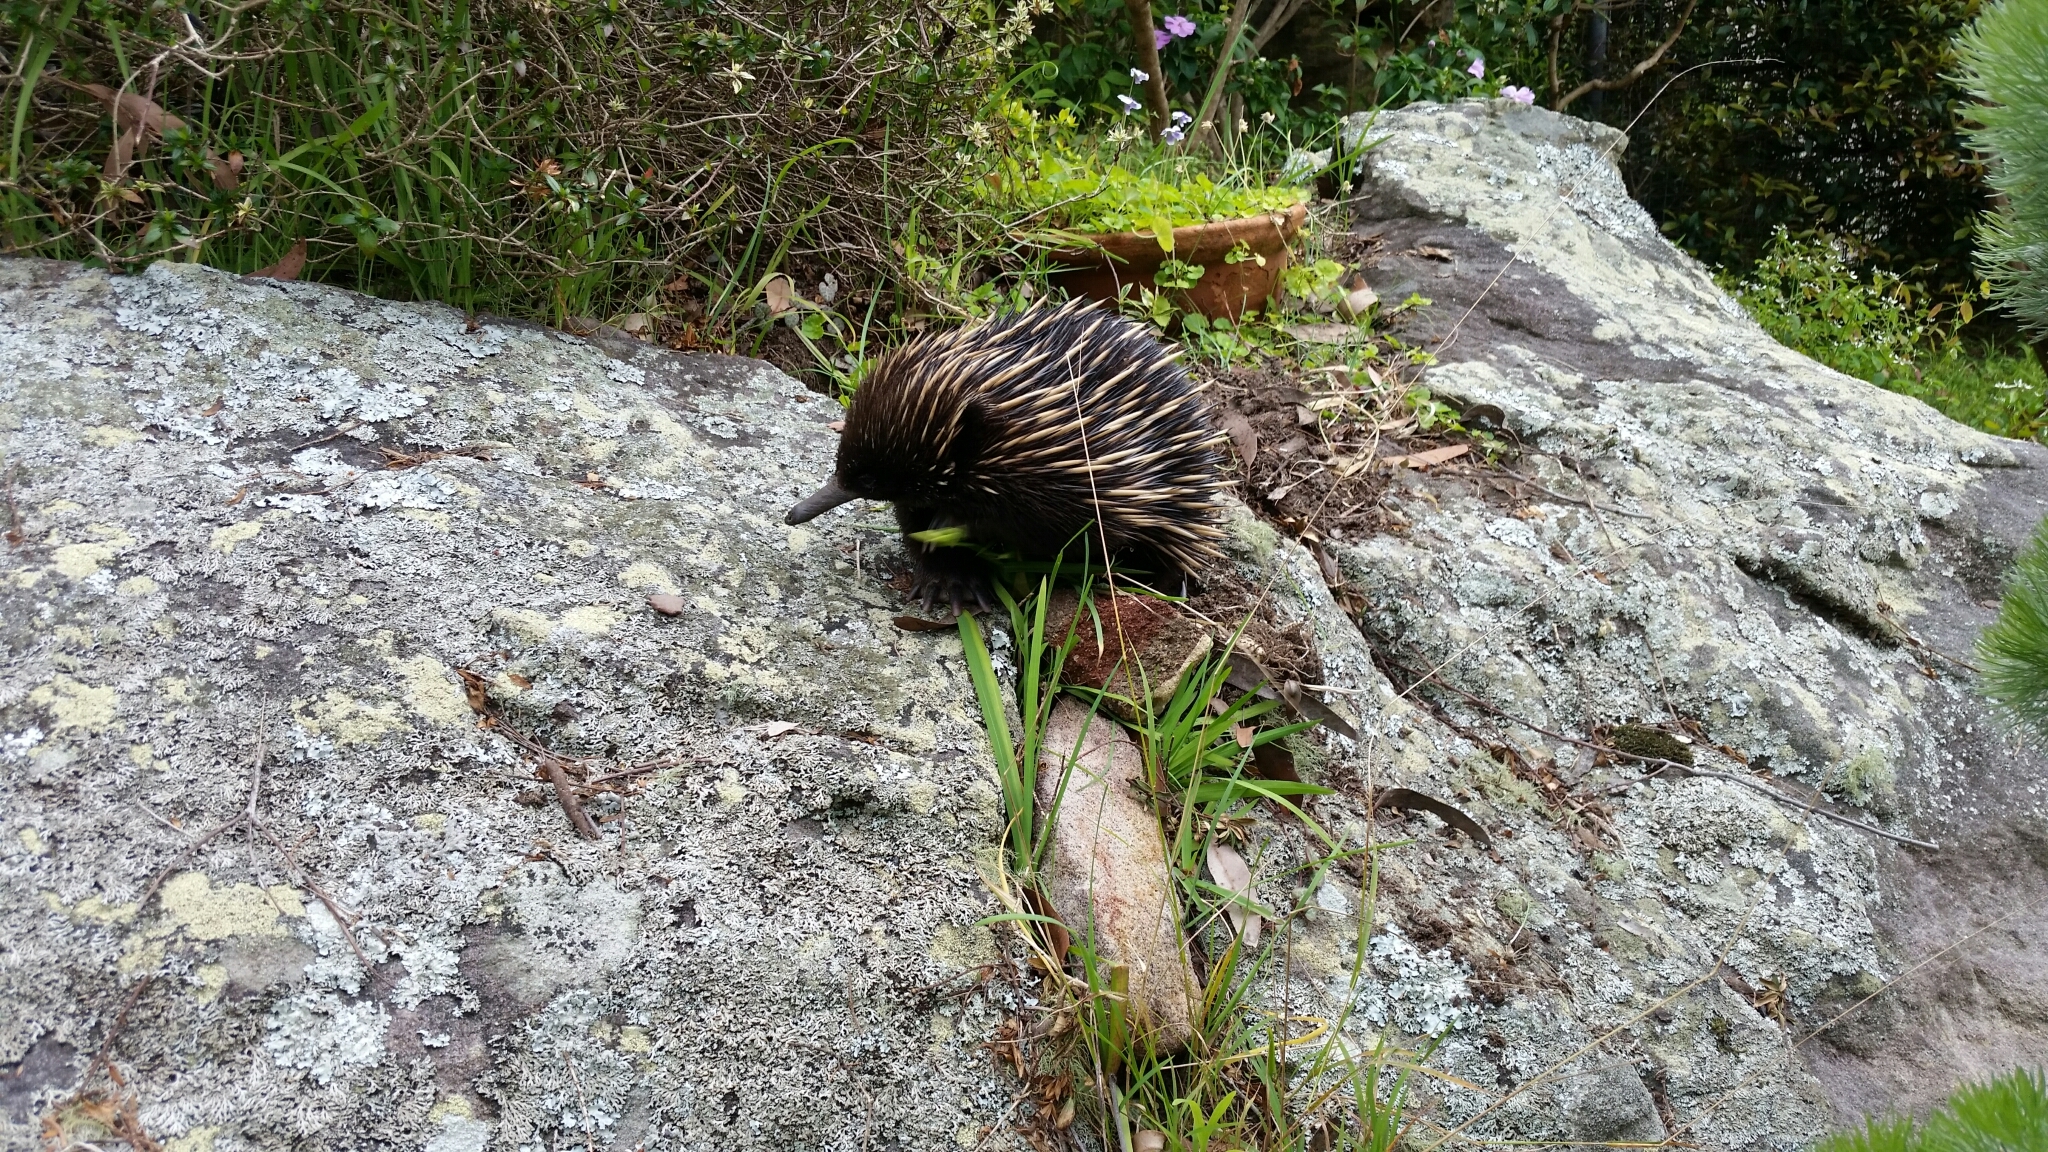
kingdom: Animalia
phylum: Chordata
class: Mammalia
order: Monotremata
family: Tachyglossidae
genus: Tachyglossus
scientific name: Tachyglossus aculeatus
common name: Short-beaked echidna
